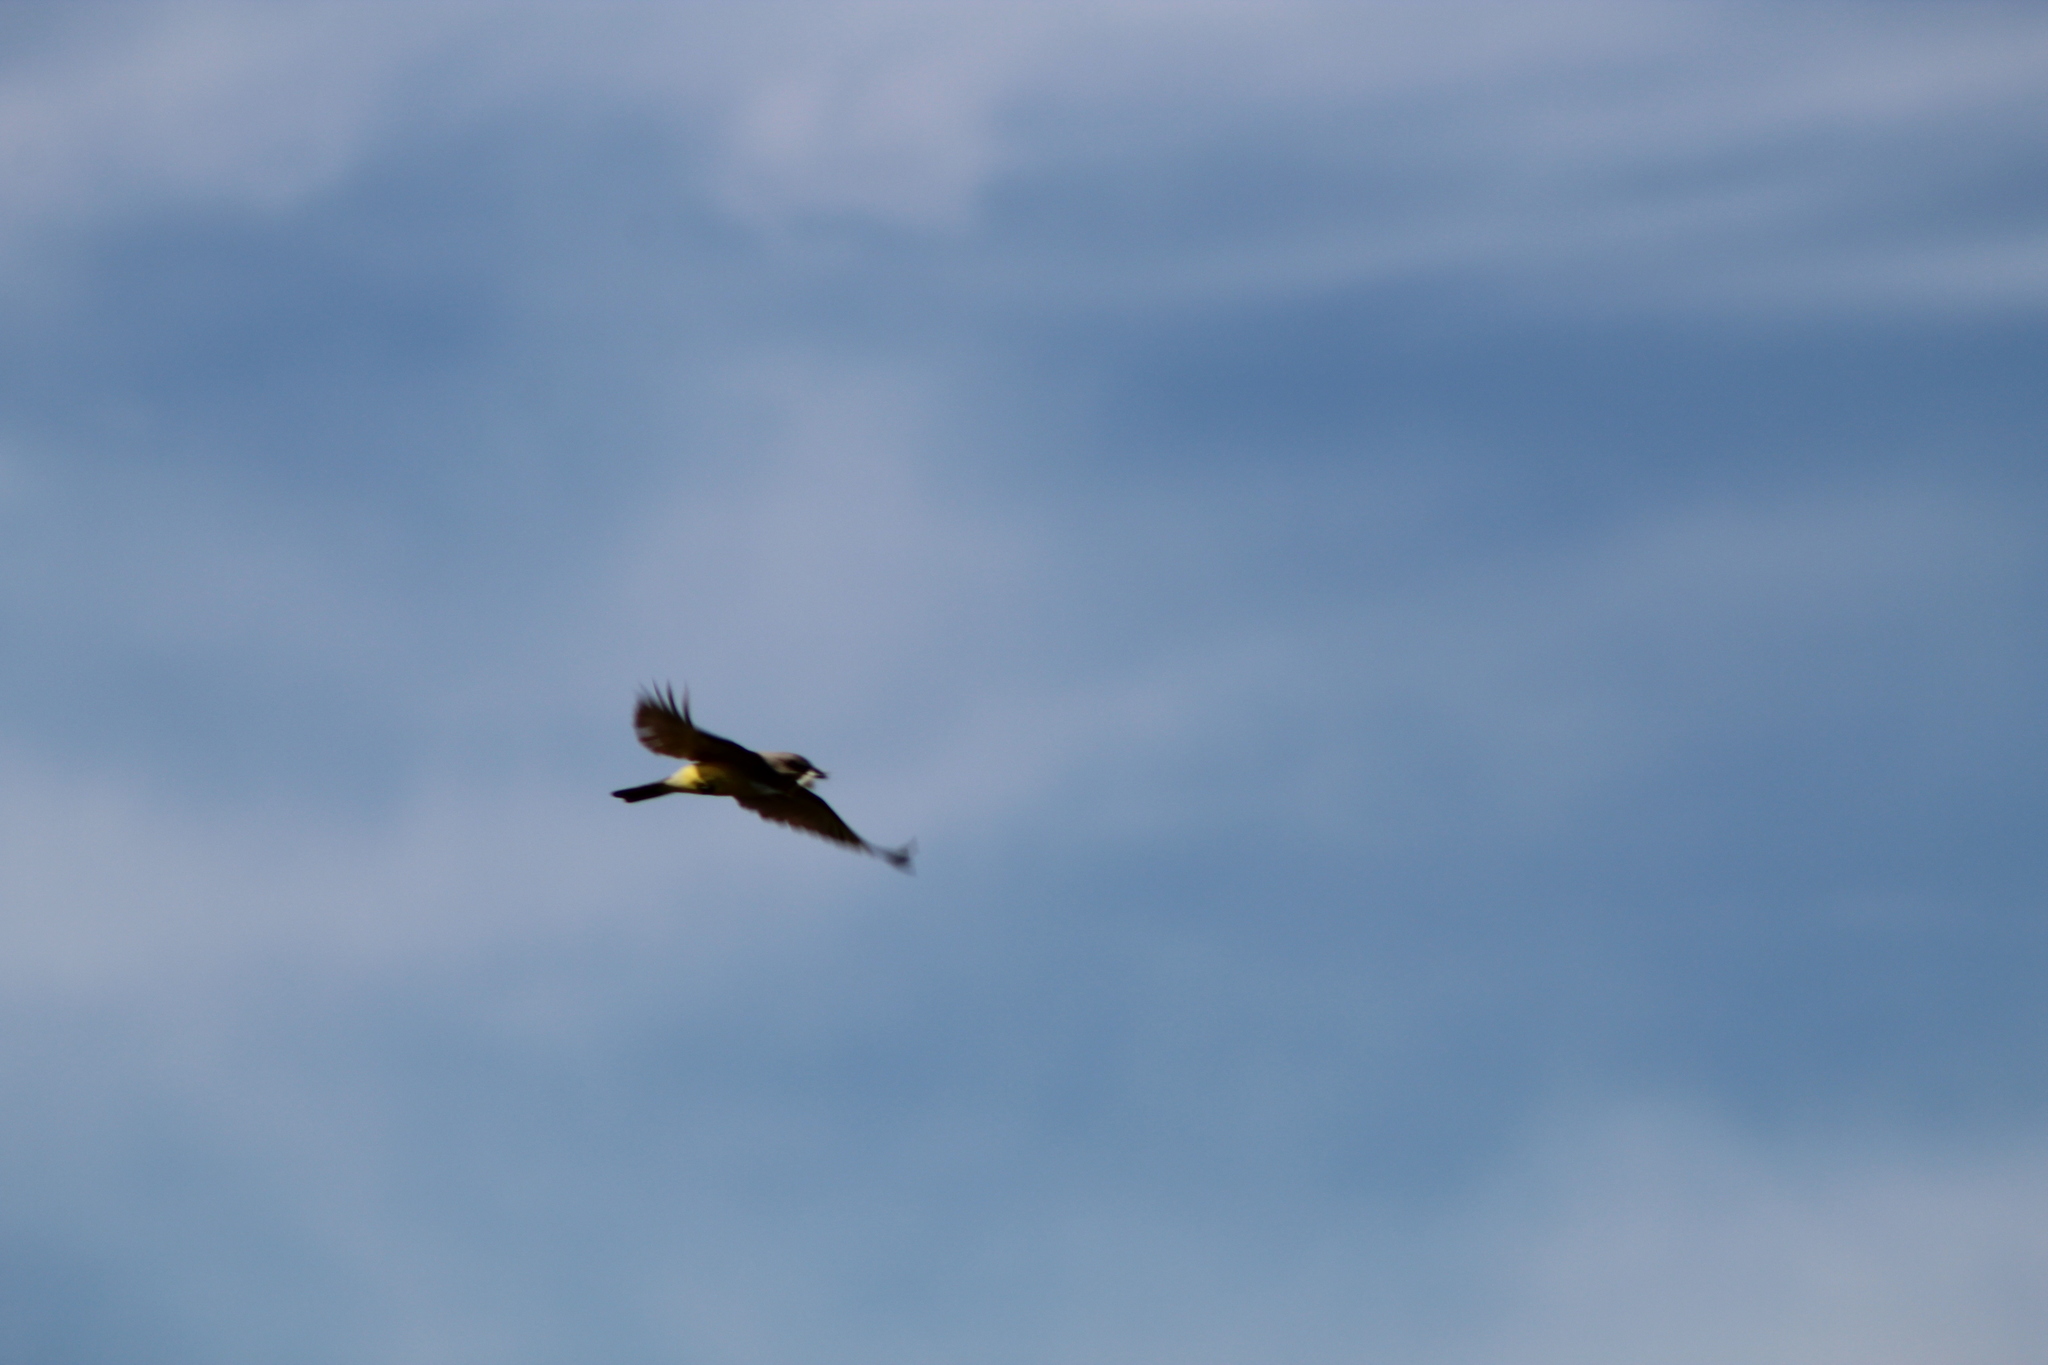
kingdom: Animalia
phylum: Chordata
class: Aves
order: Passeriformes
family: Tyrannidae
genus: Tyrannus
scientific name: Tyrannus verticalis
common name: Western kingbird
